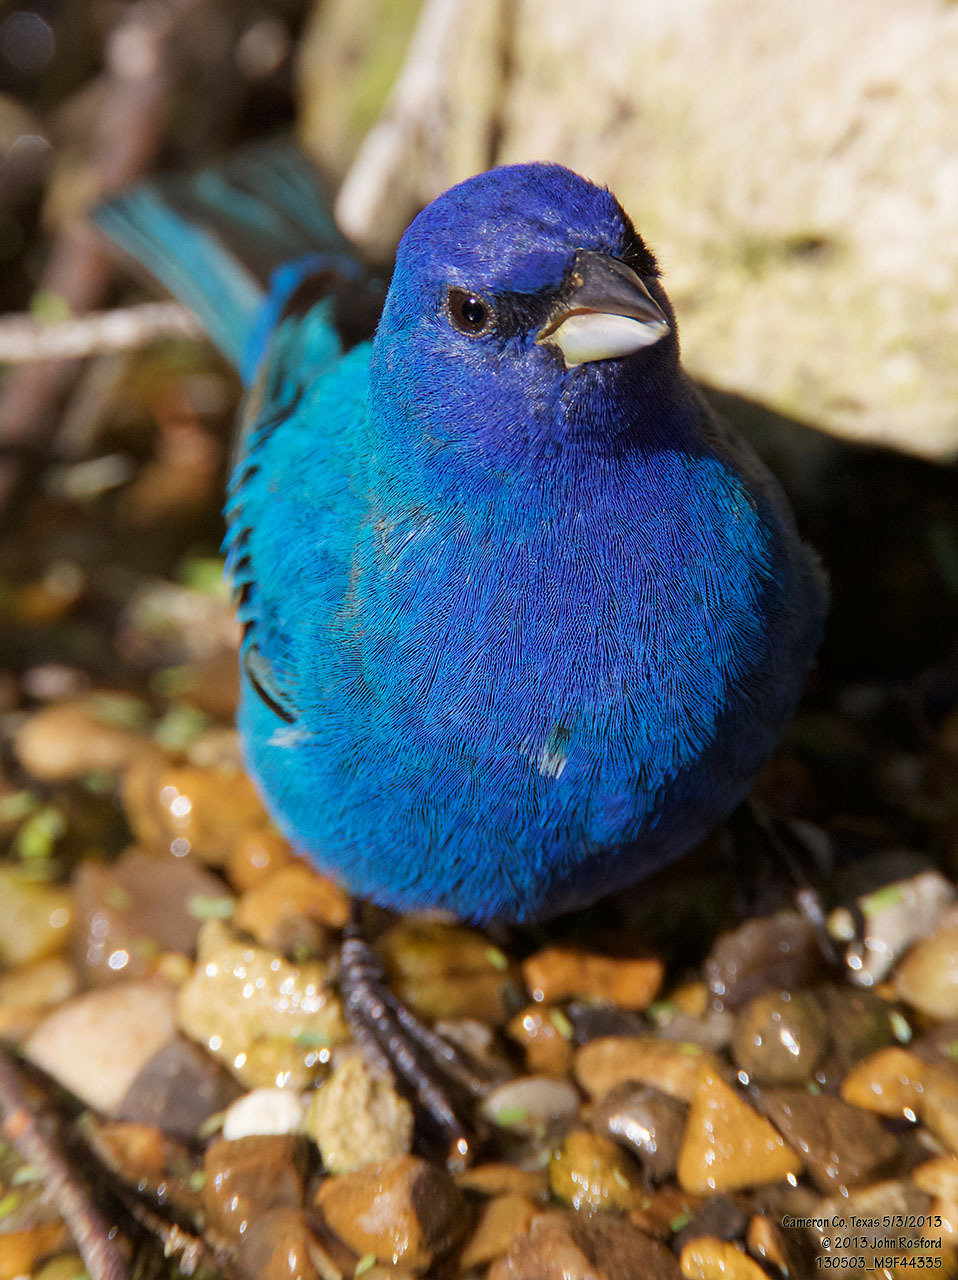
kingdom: Animalia
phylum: Chordata
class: Aves
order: Passeriformes
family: Cardinalidae
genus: Passerina
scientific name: Passerina cyanea
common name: Indigo bunting
